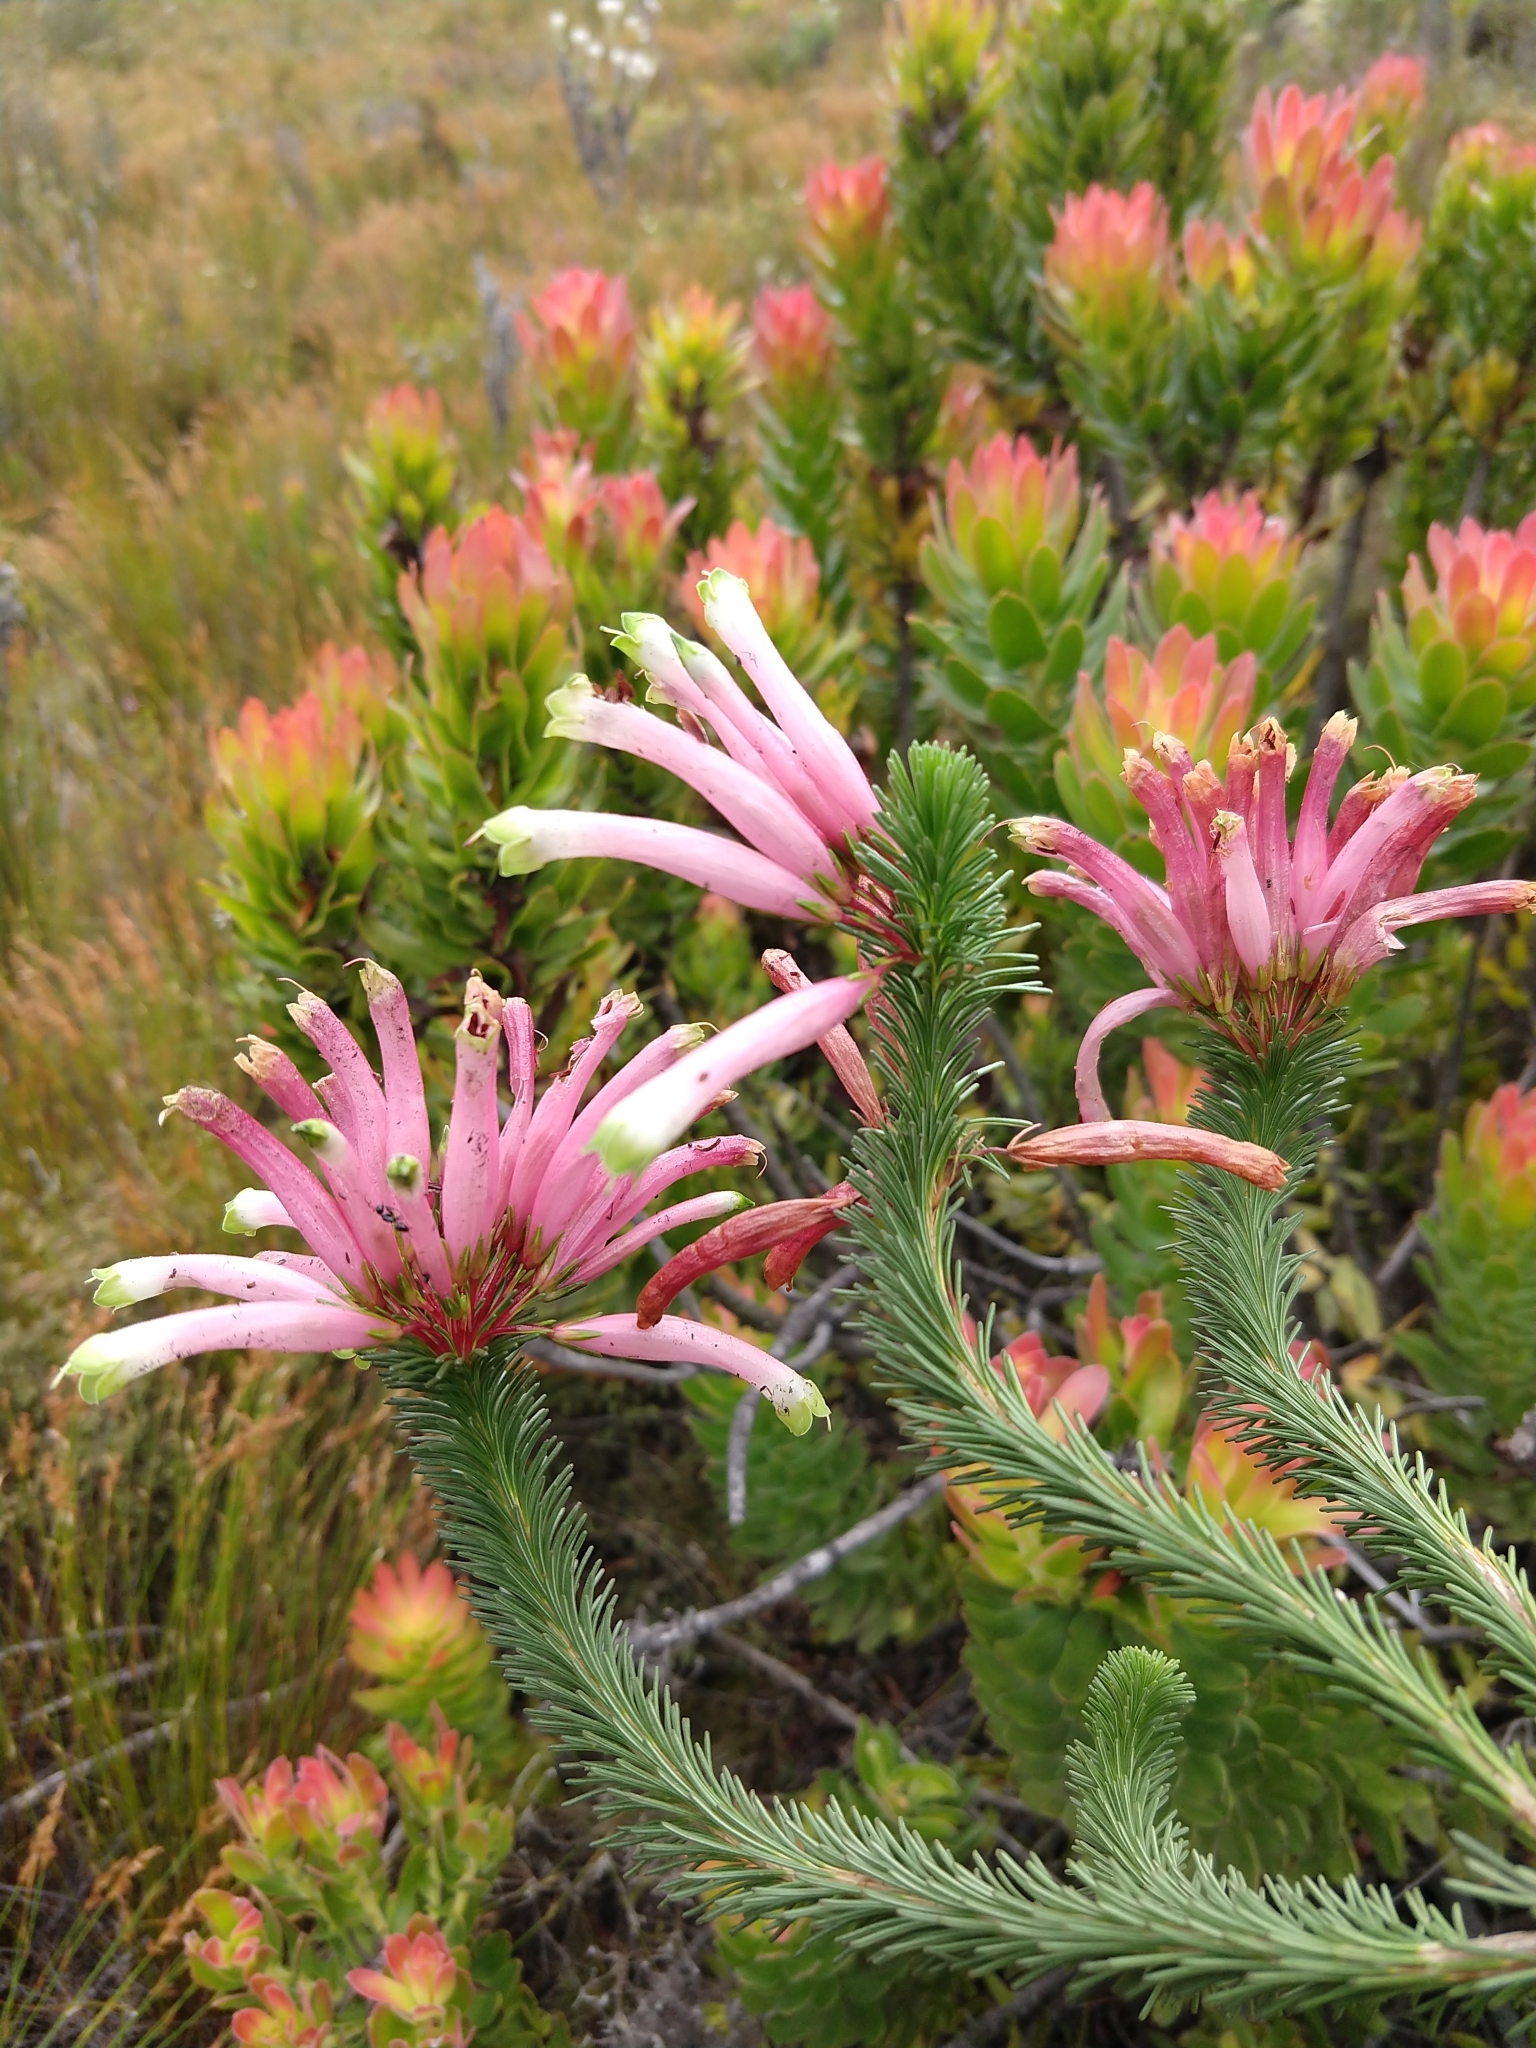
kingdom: Plantae
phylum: Tracheophyta
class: Magnoliopsida
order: Ericales
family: Ericaceae
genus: Erica
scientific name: Erica fascicularis
